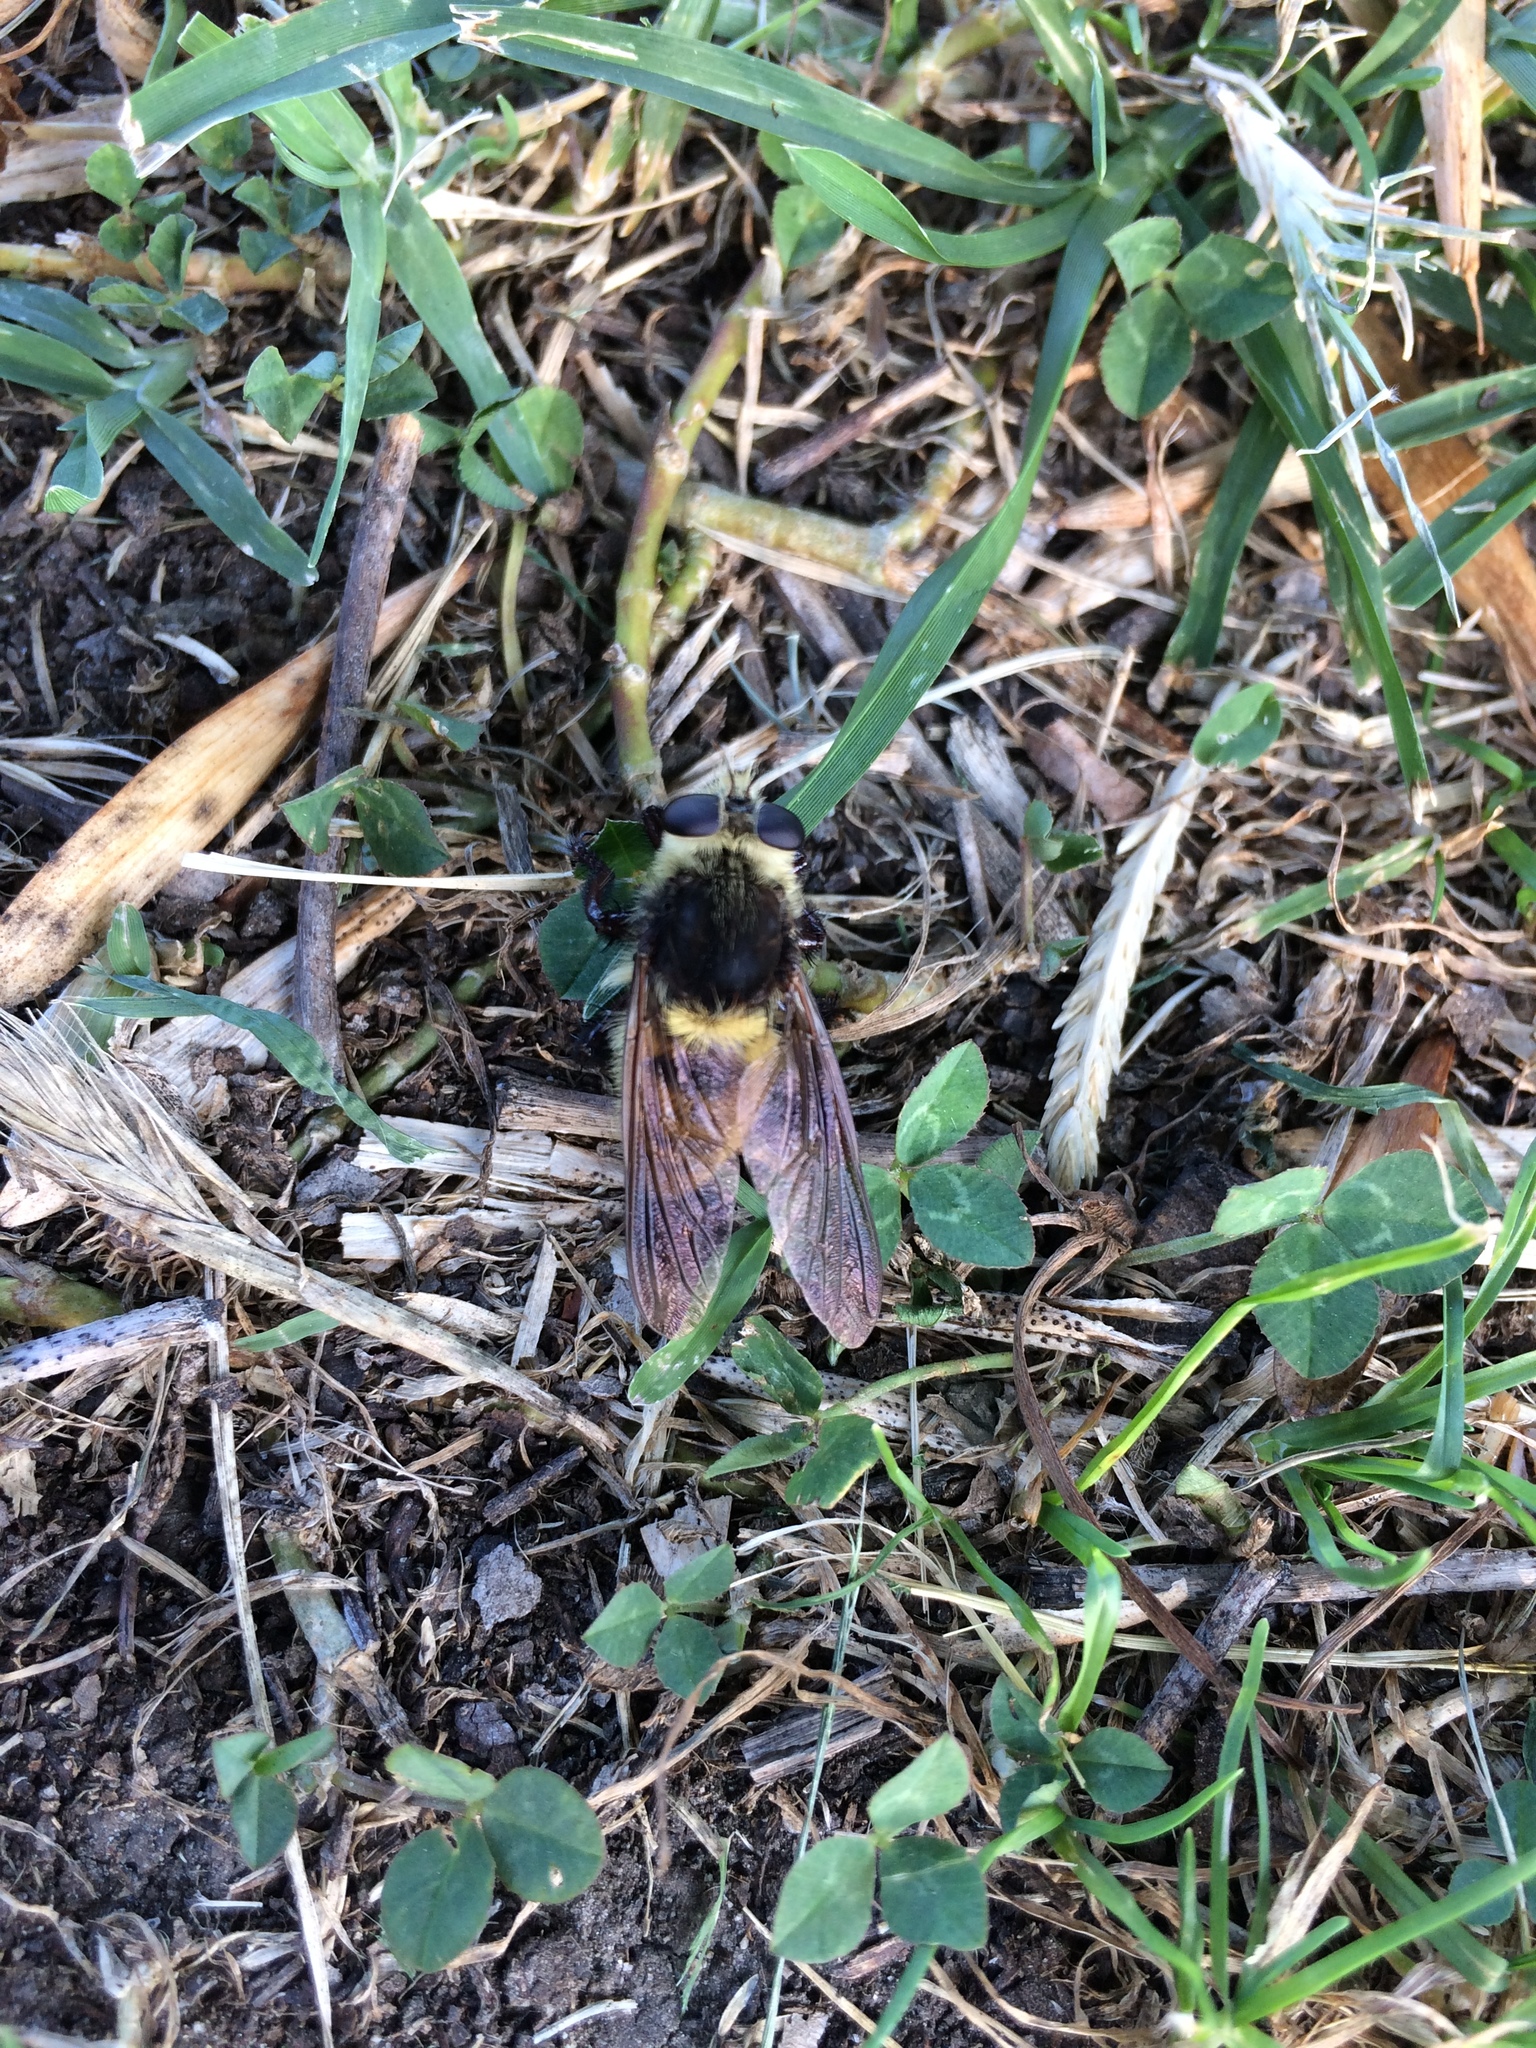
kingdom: Animalia
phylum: Arthropoda
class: Insecta
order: Diptera
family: Asilidae
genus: Mallophora
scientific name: Mallophora fautrix
